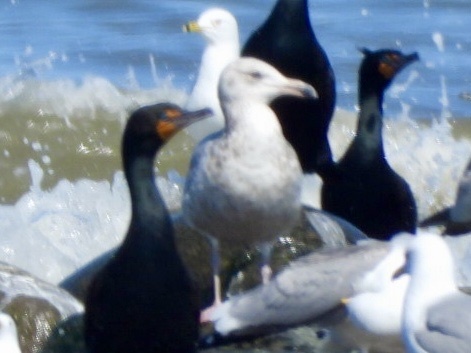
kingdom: Animalia
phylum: Chordata
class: Aves
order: Charadriiformes
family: Laridae
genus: Larus
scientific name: Larus argentatus
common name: Herring gull
